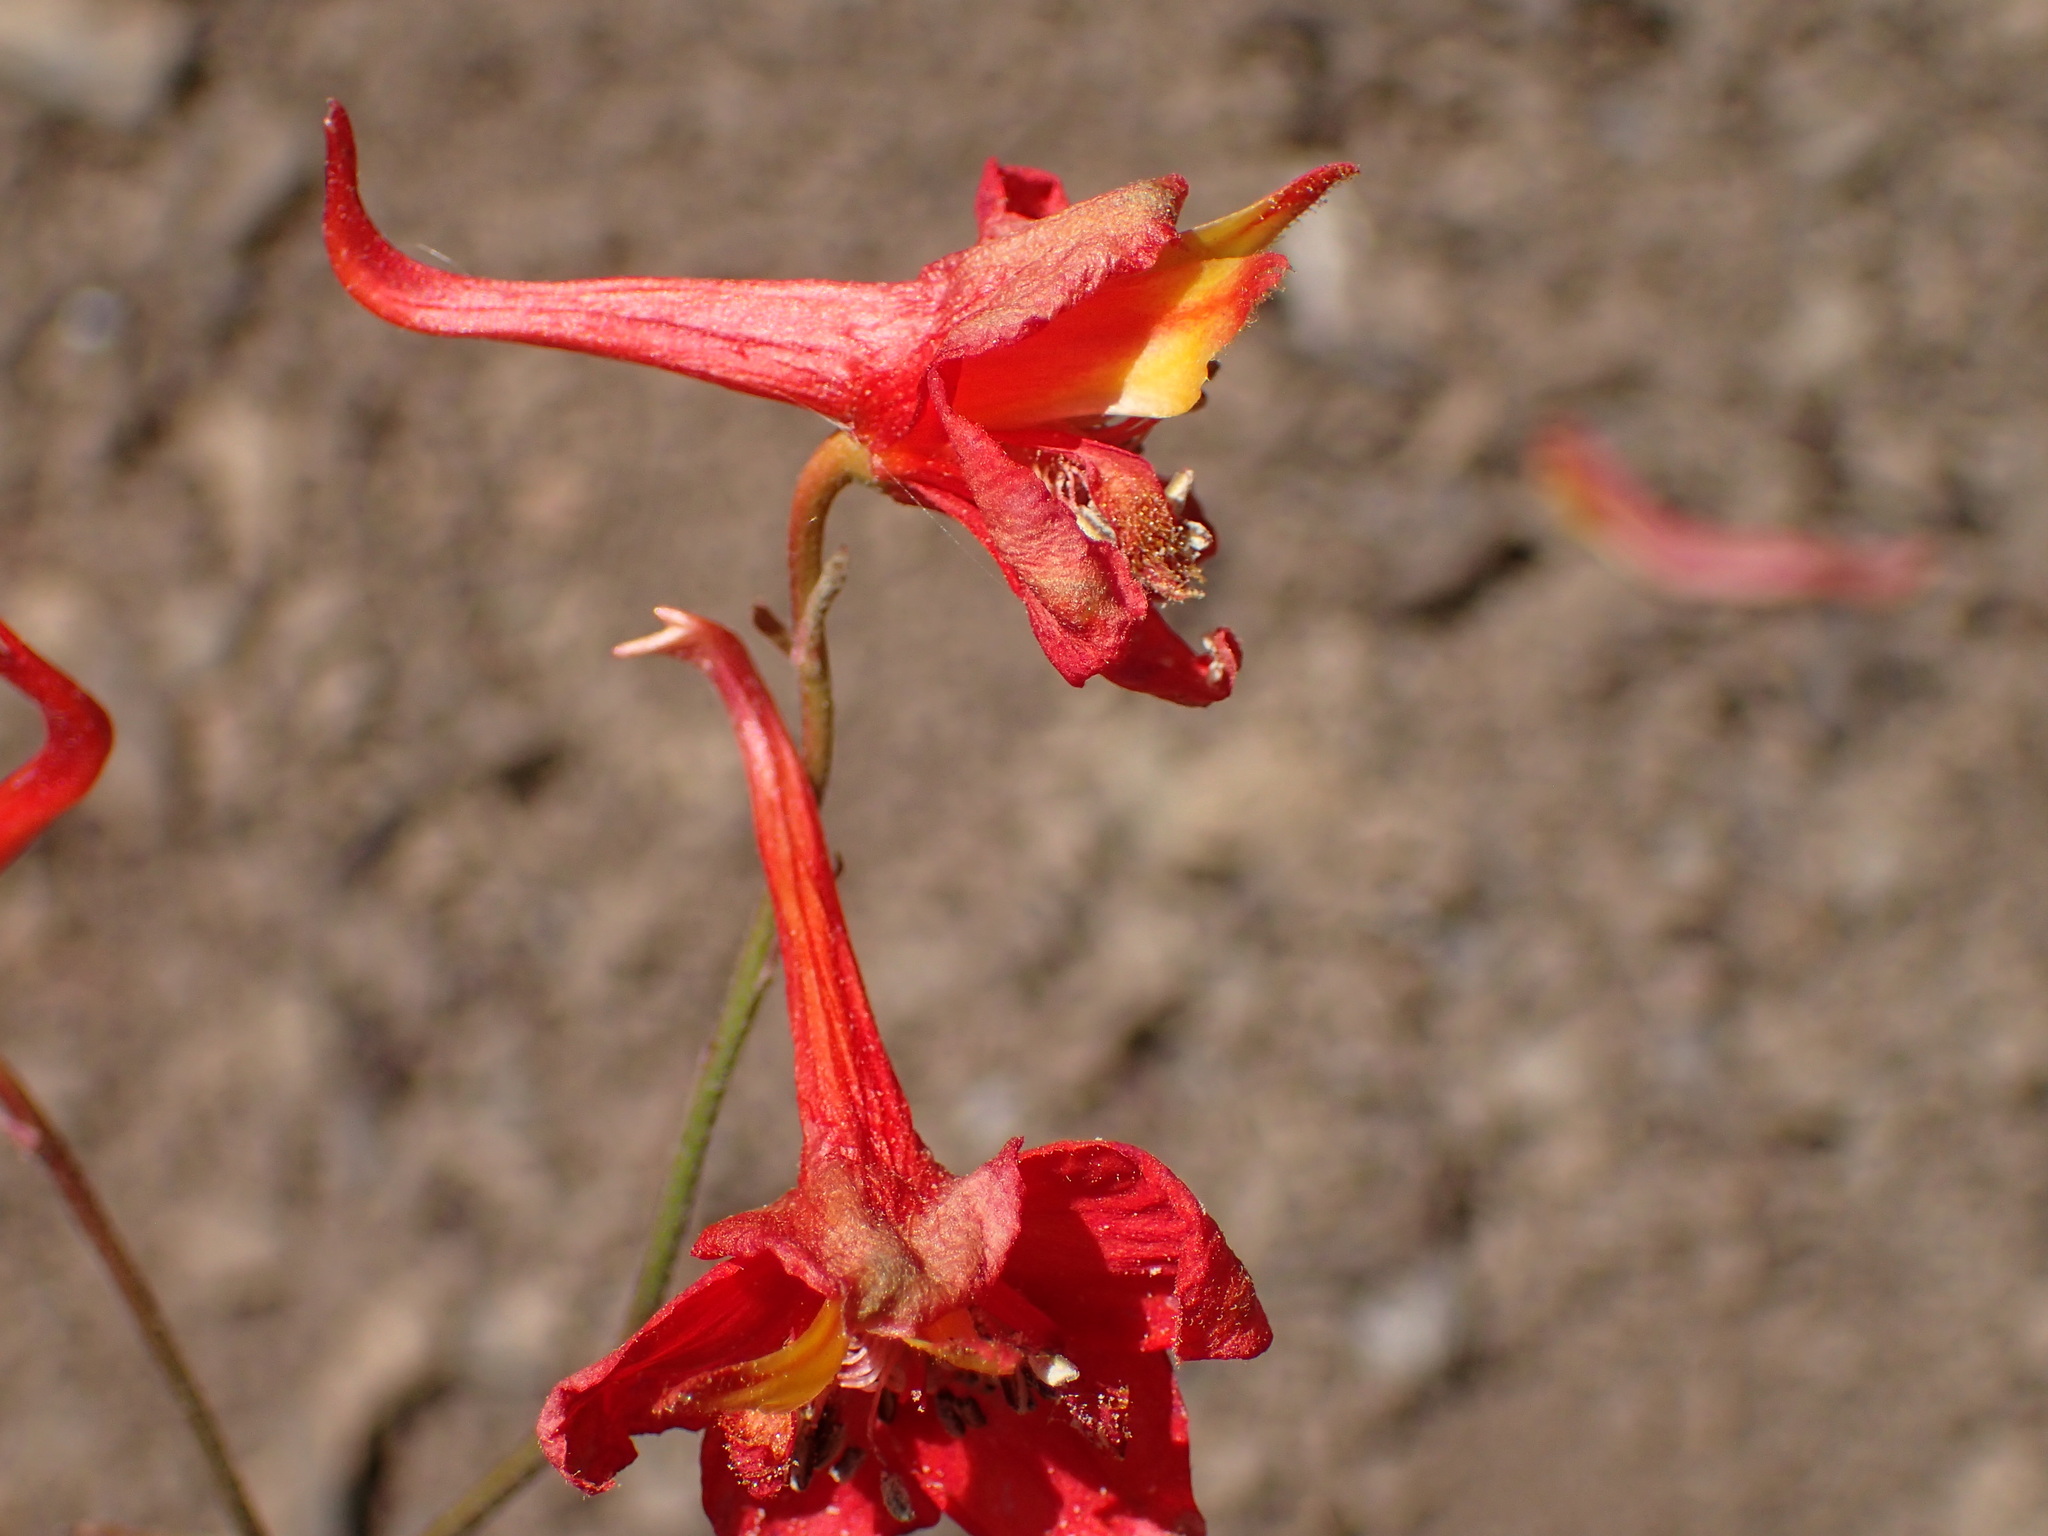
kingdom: Plantae
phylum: Tracheophyta
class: Magnoliopsida
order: Ranunculales
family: Ranunculaceae
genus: Delphinium
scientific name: Delphinium cardinale
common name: Scarlet larkspur
